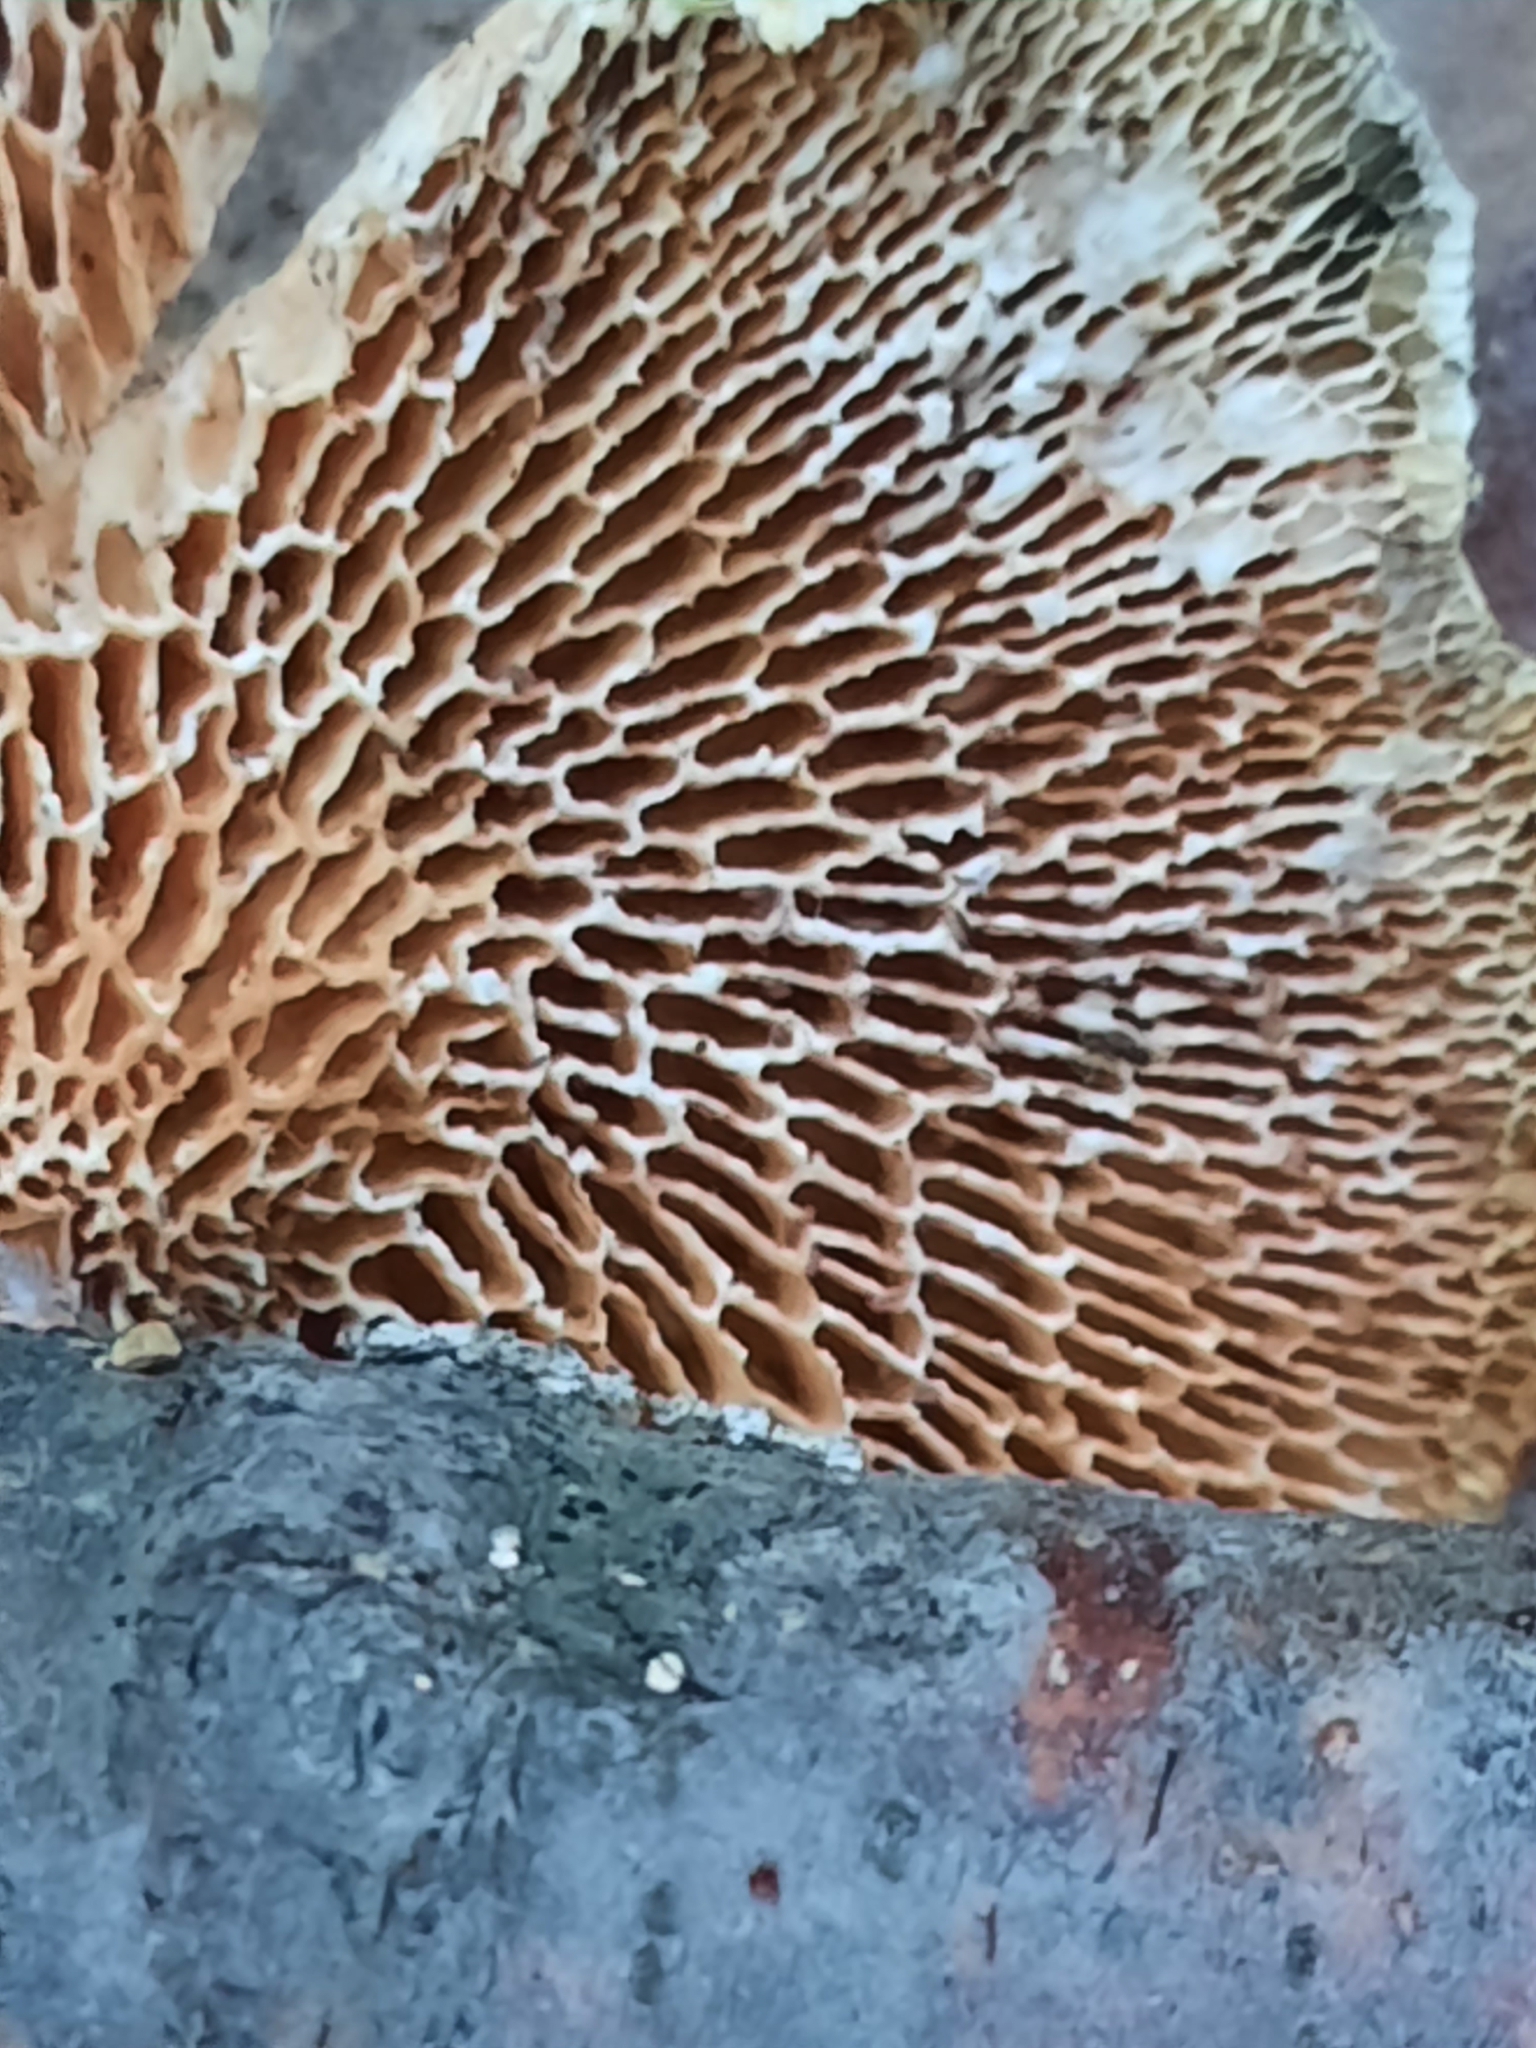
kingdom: Fungi
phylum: Basidiomycota
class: Agaricomycetes
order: Polyporales
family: Polyporaceae
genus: Neofavolus
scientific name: Neofavolus alveolaris
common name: Hexagonal-pored polypore
